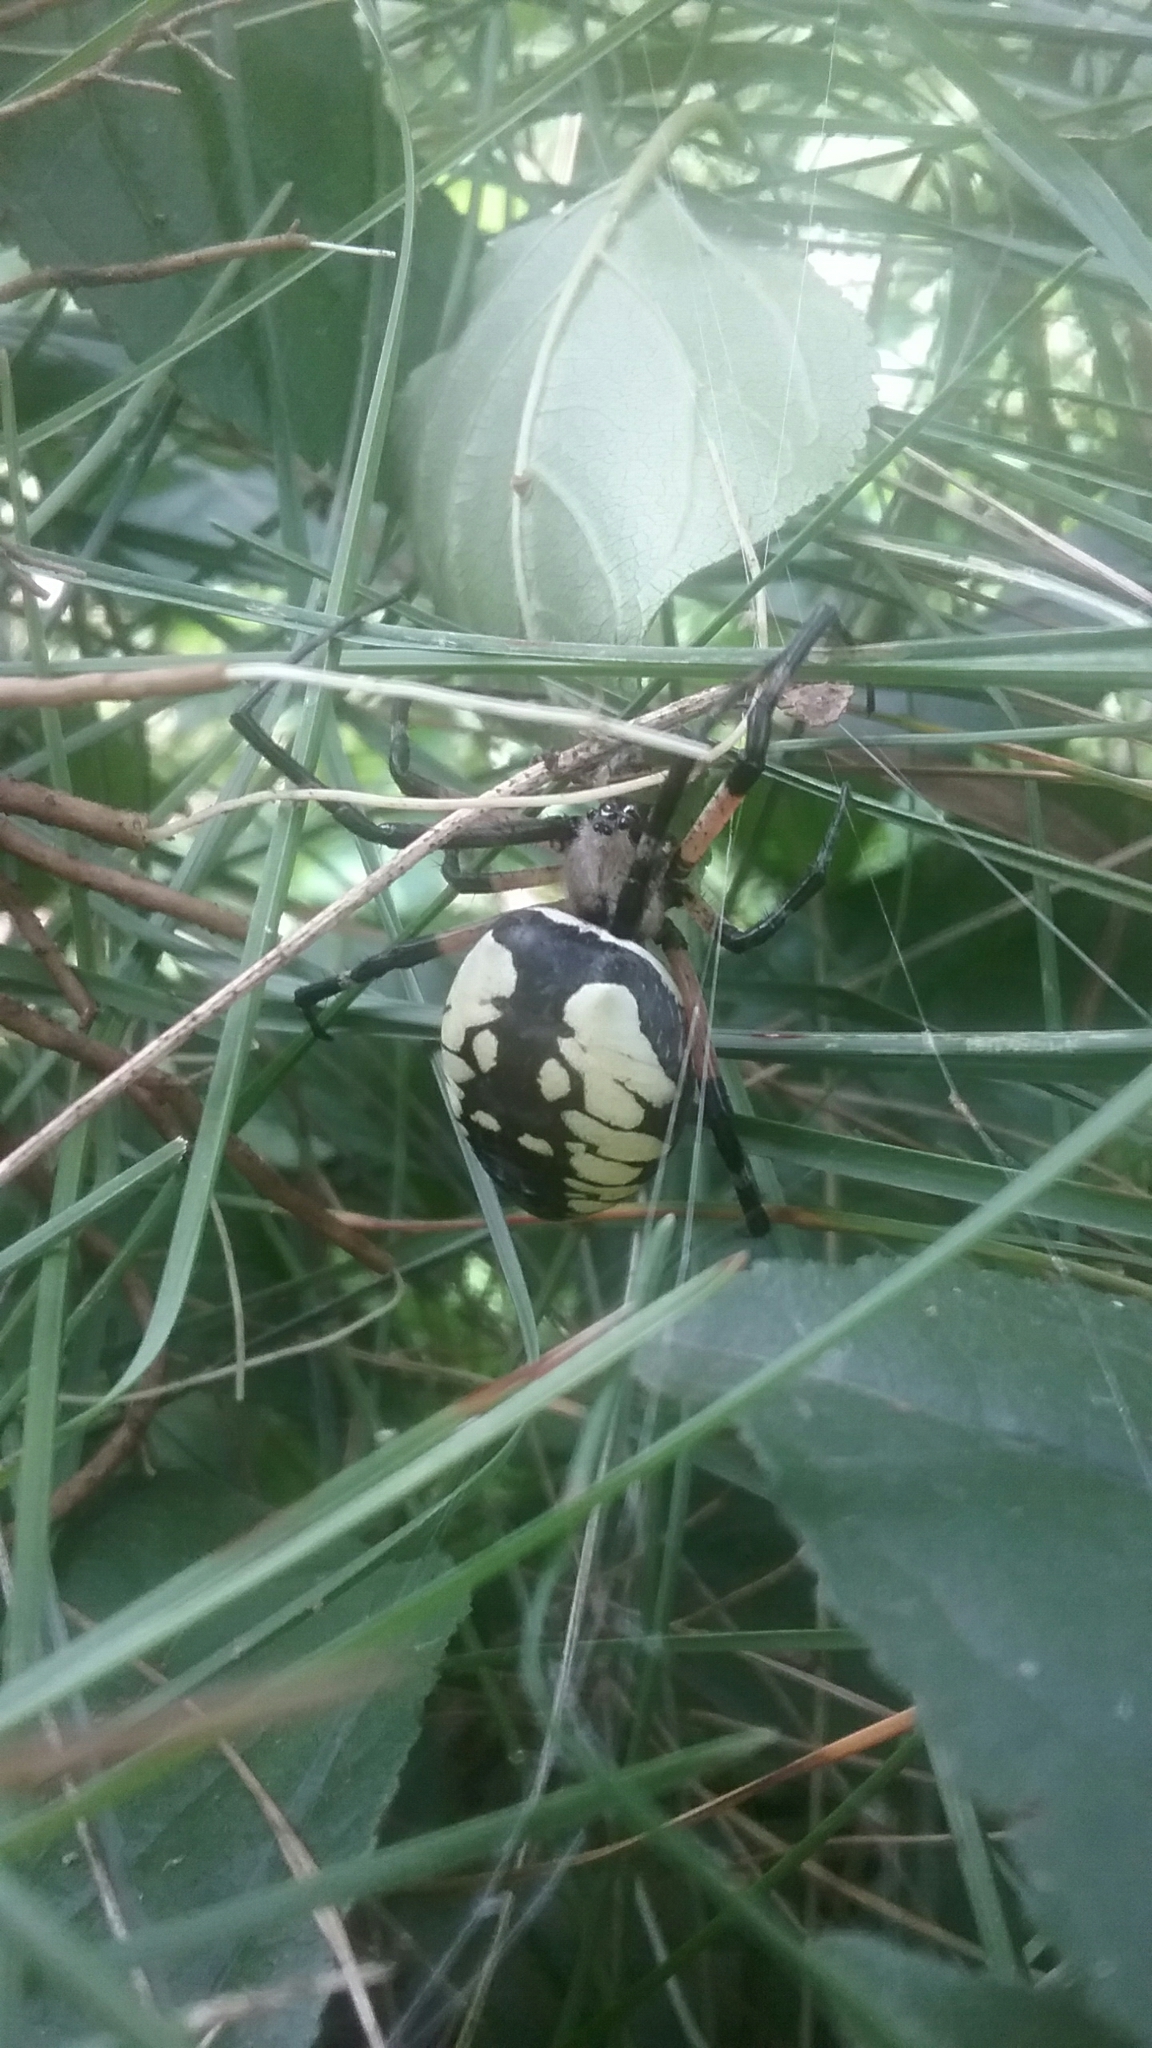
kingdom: Animalia
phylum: Arthropoda
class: Arachnida
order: Araneae
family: Araneidae
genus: Argiope
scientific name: Argiope aurantia
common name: Orb weavers
